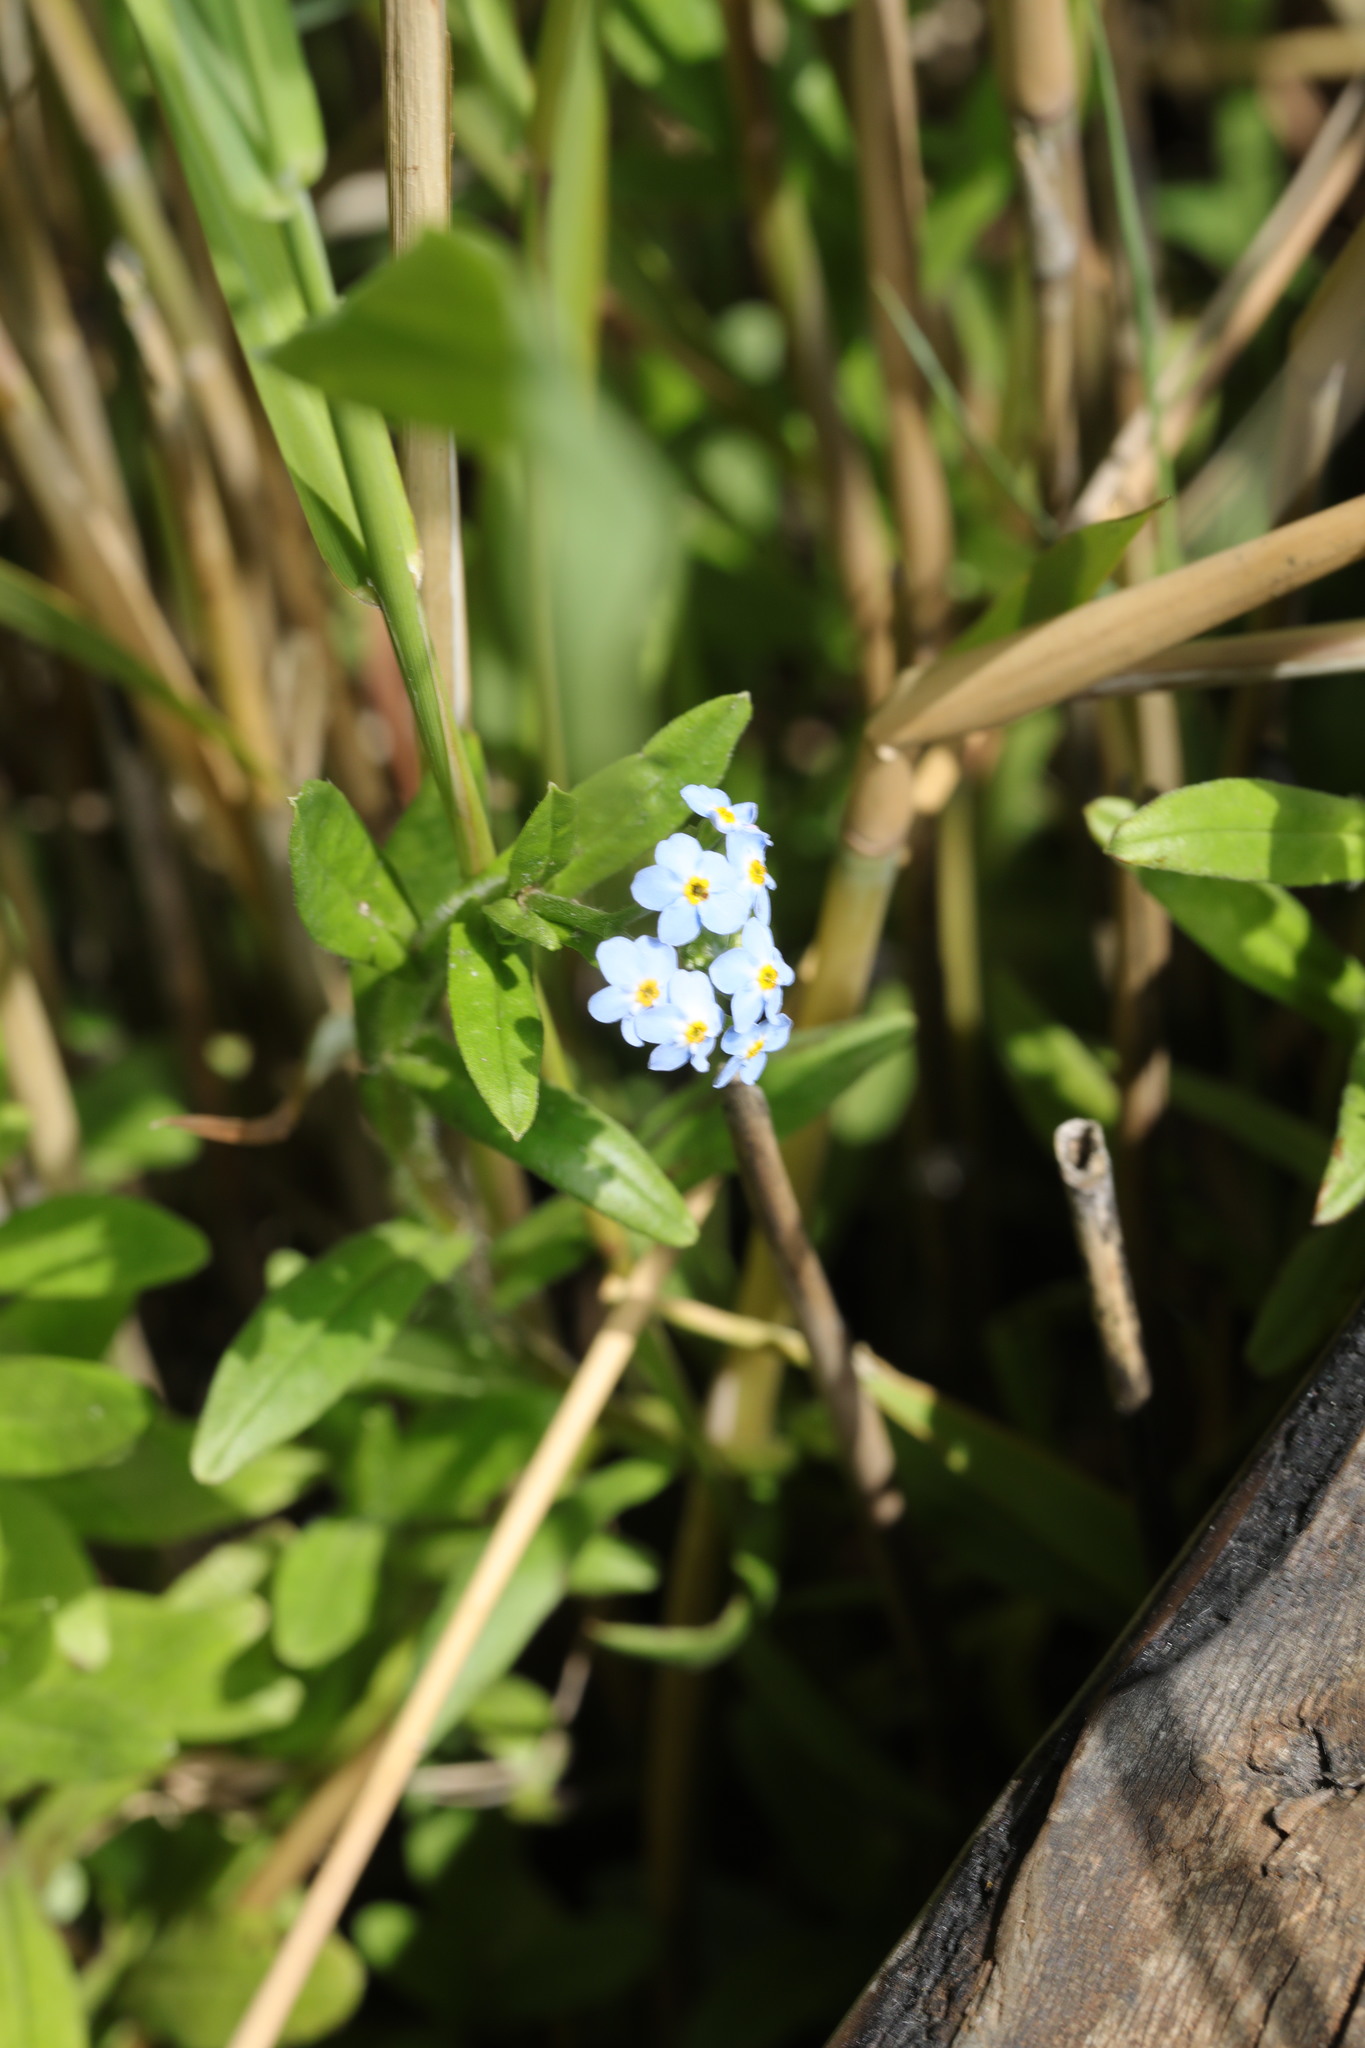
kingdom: Plantae
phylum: Tracheophyta
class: Magnoliopsida
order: Boraginales
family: Boraginaceae
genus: Myosotis
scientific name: Myosotis scorpioides
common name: Water forget-me-not
